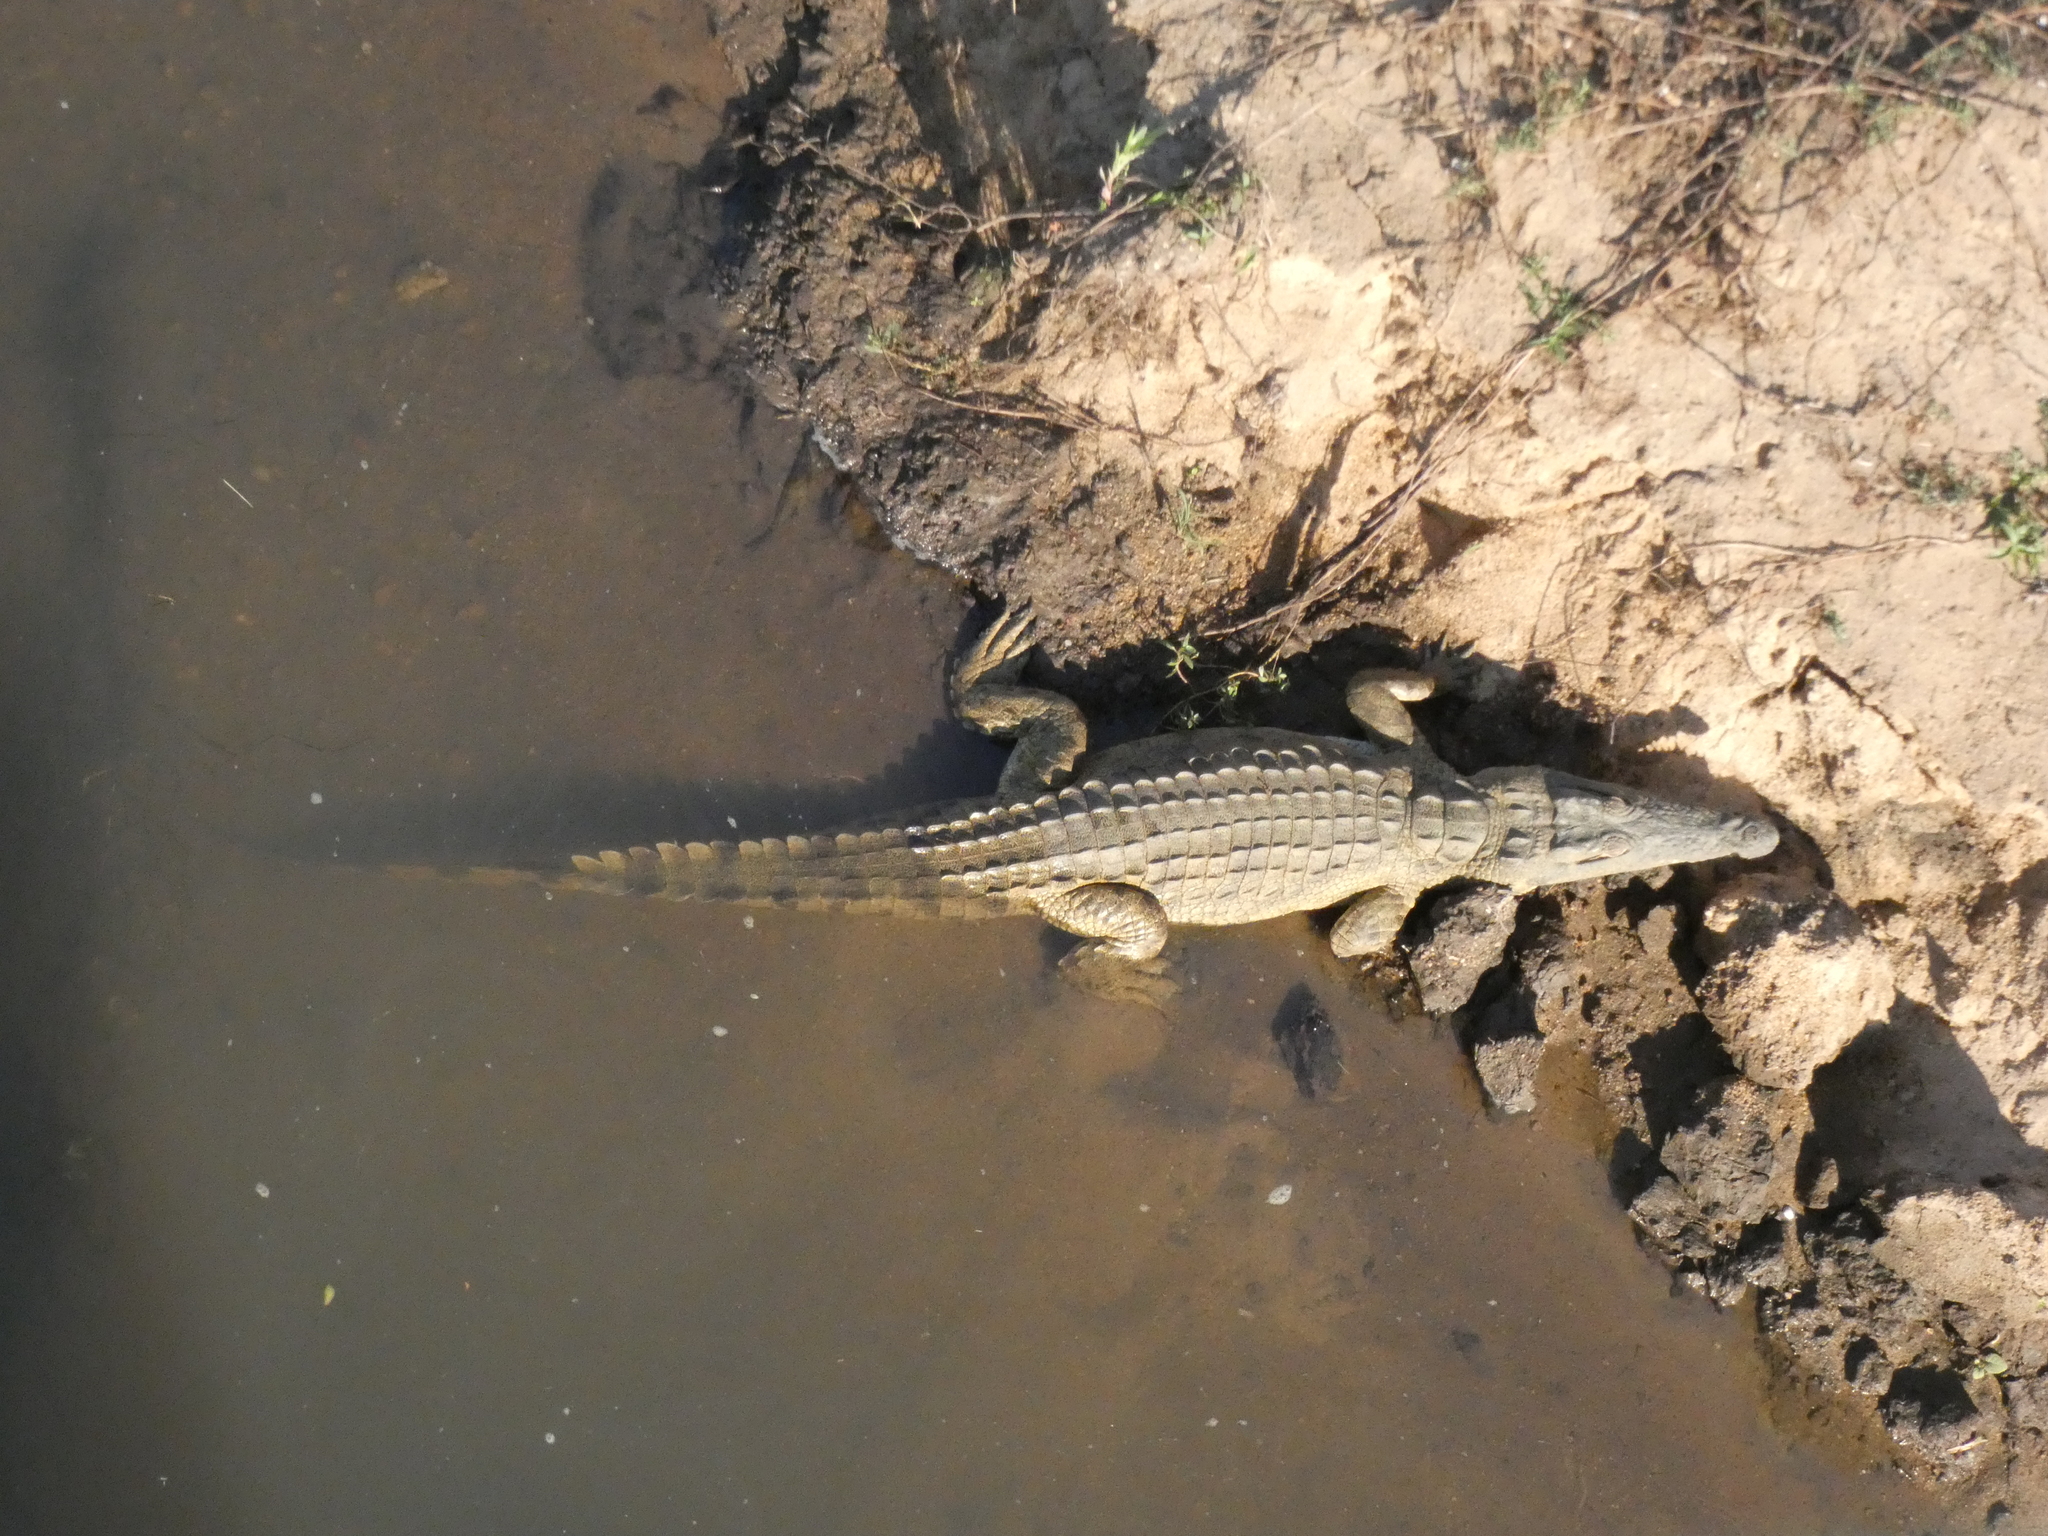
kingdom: Animalia
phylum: Chordata
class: Crocodylia
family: Crocodylidae
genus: Crocodylus
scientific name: Crocodylus niloticus
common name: Nile crocodile
